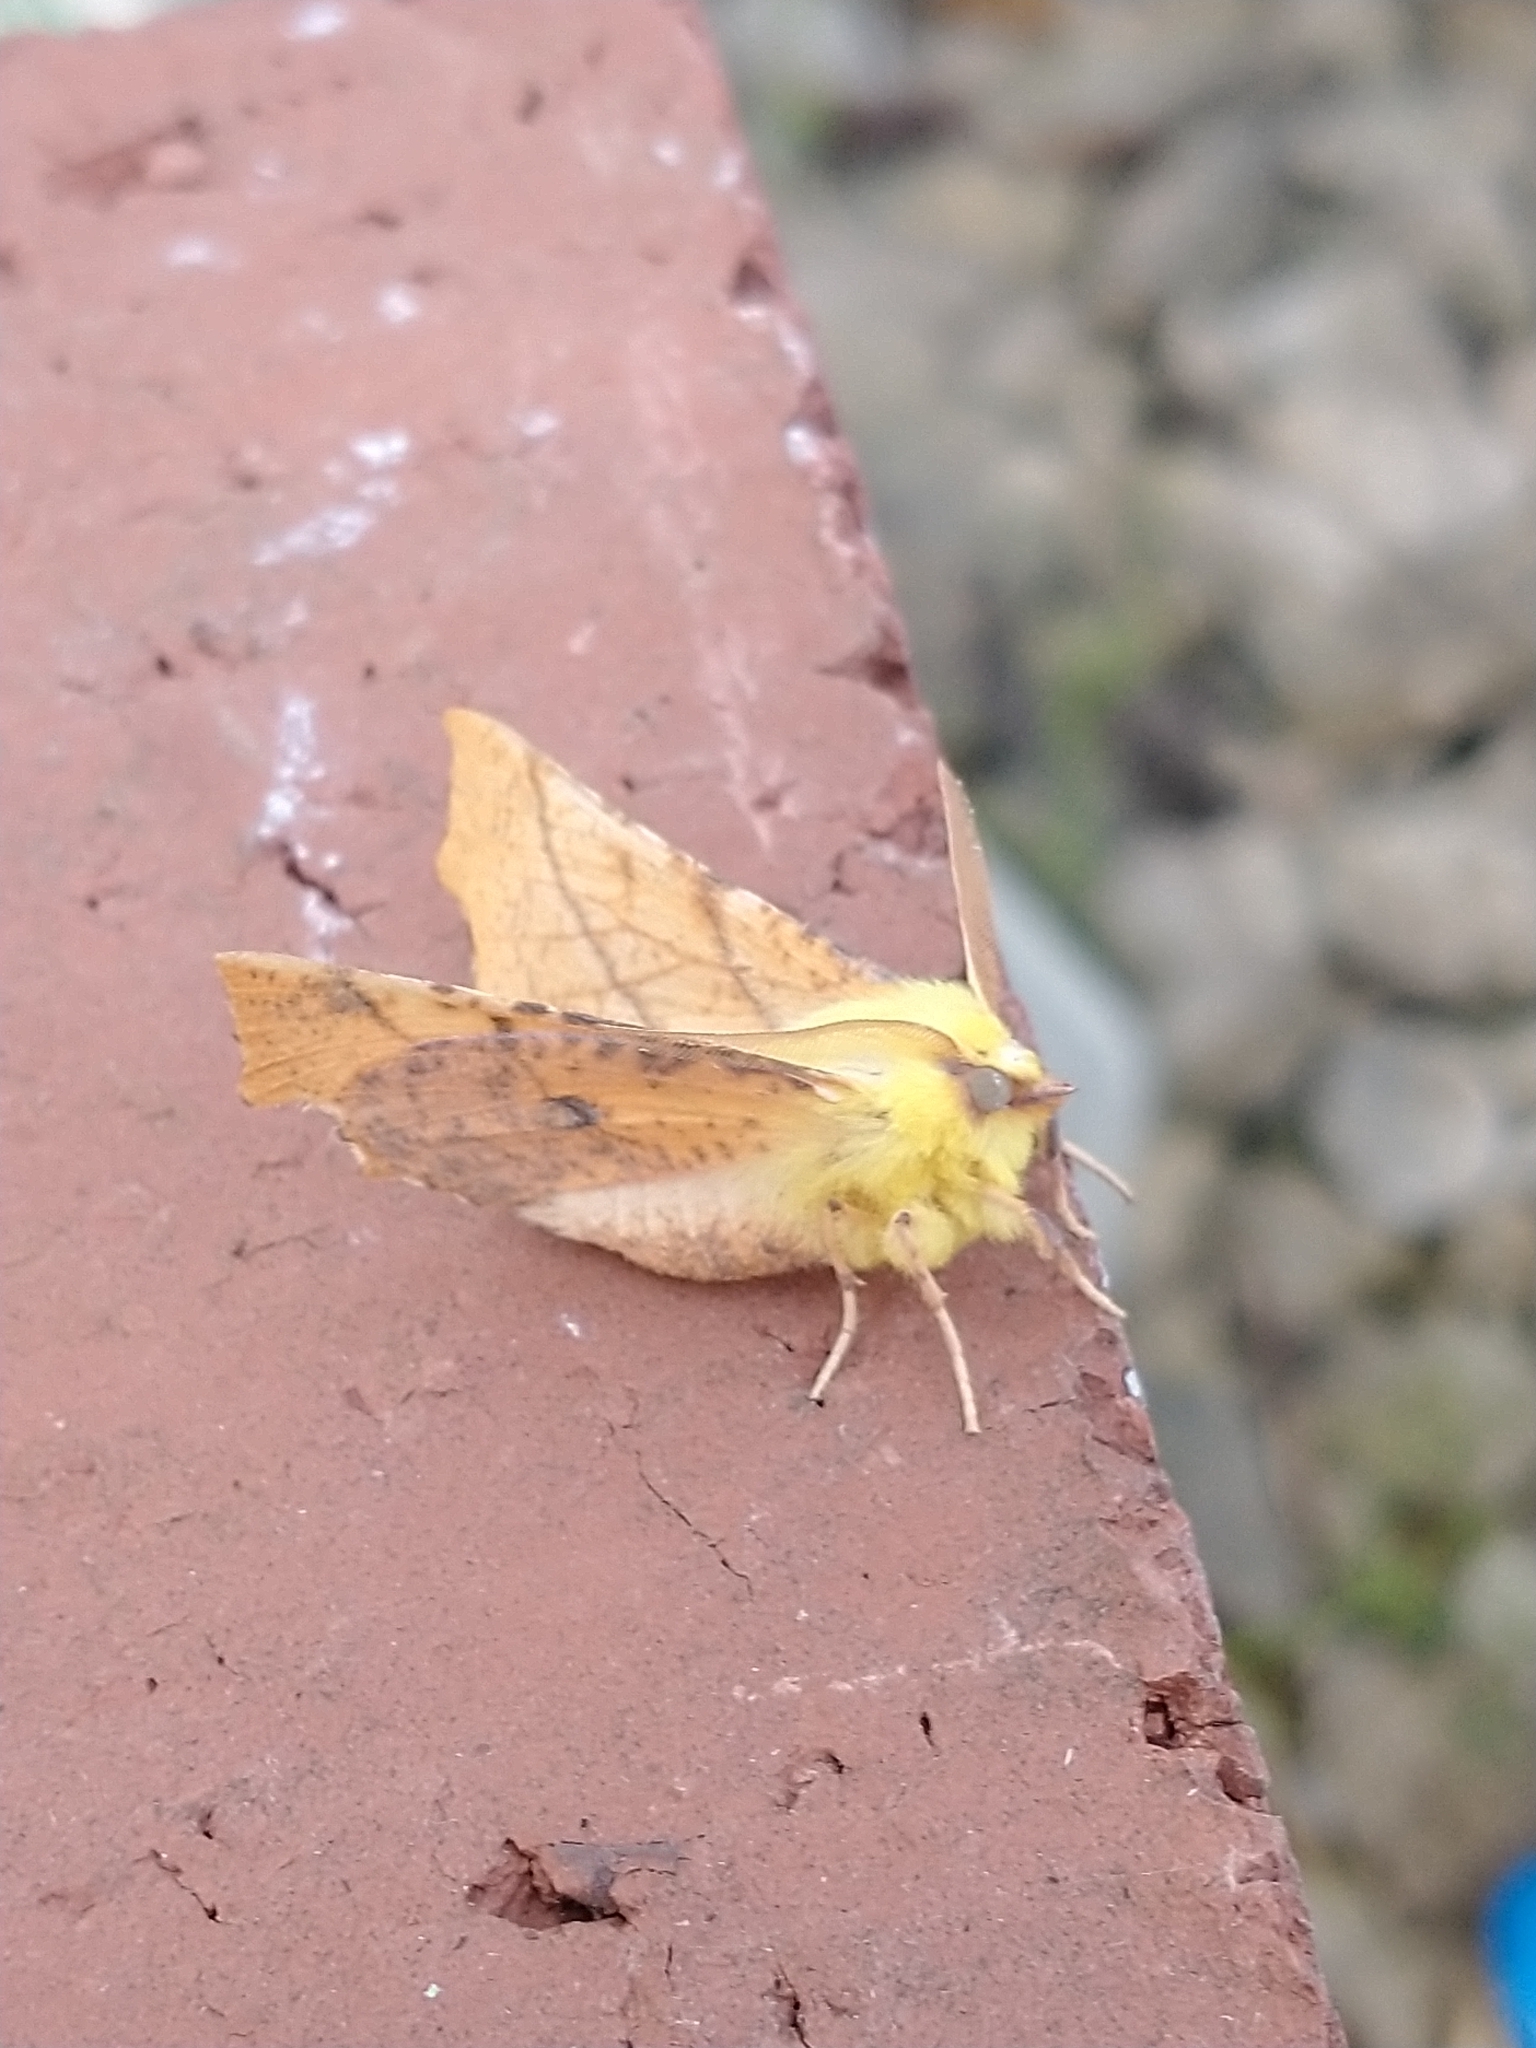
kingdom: Animalia
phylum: Arthropoda
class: Insecta
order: Lepidoptera
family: Geometridae
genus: Ennomos
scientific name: Ennomos alniaria
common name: Canary-shouldered thorn
